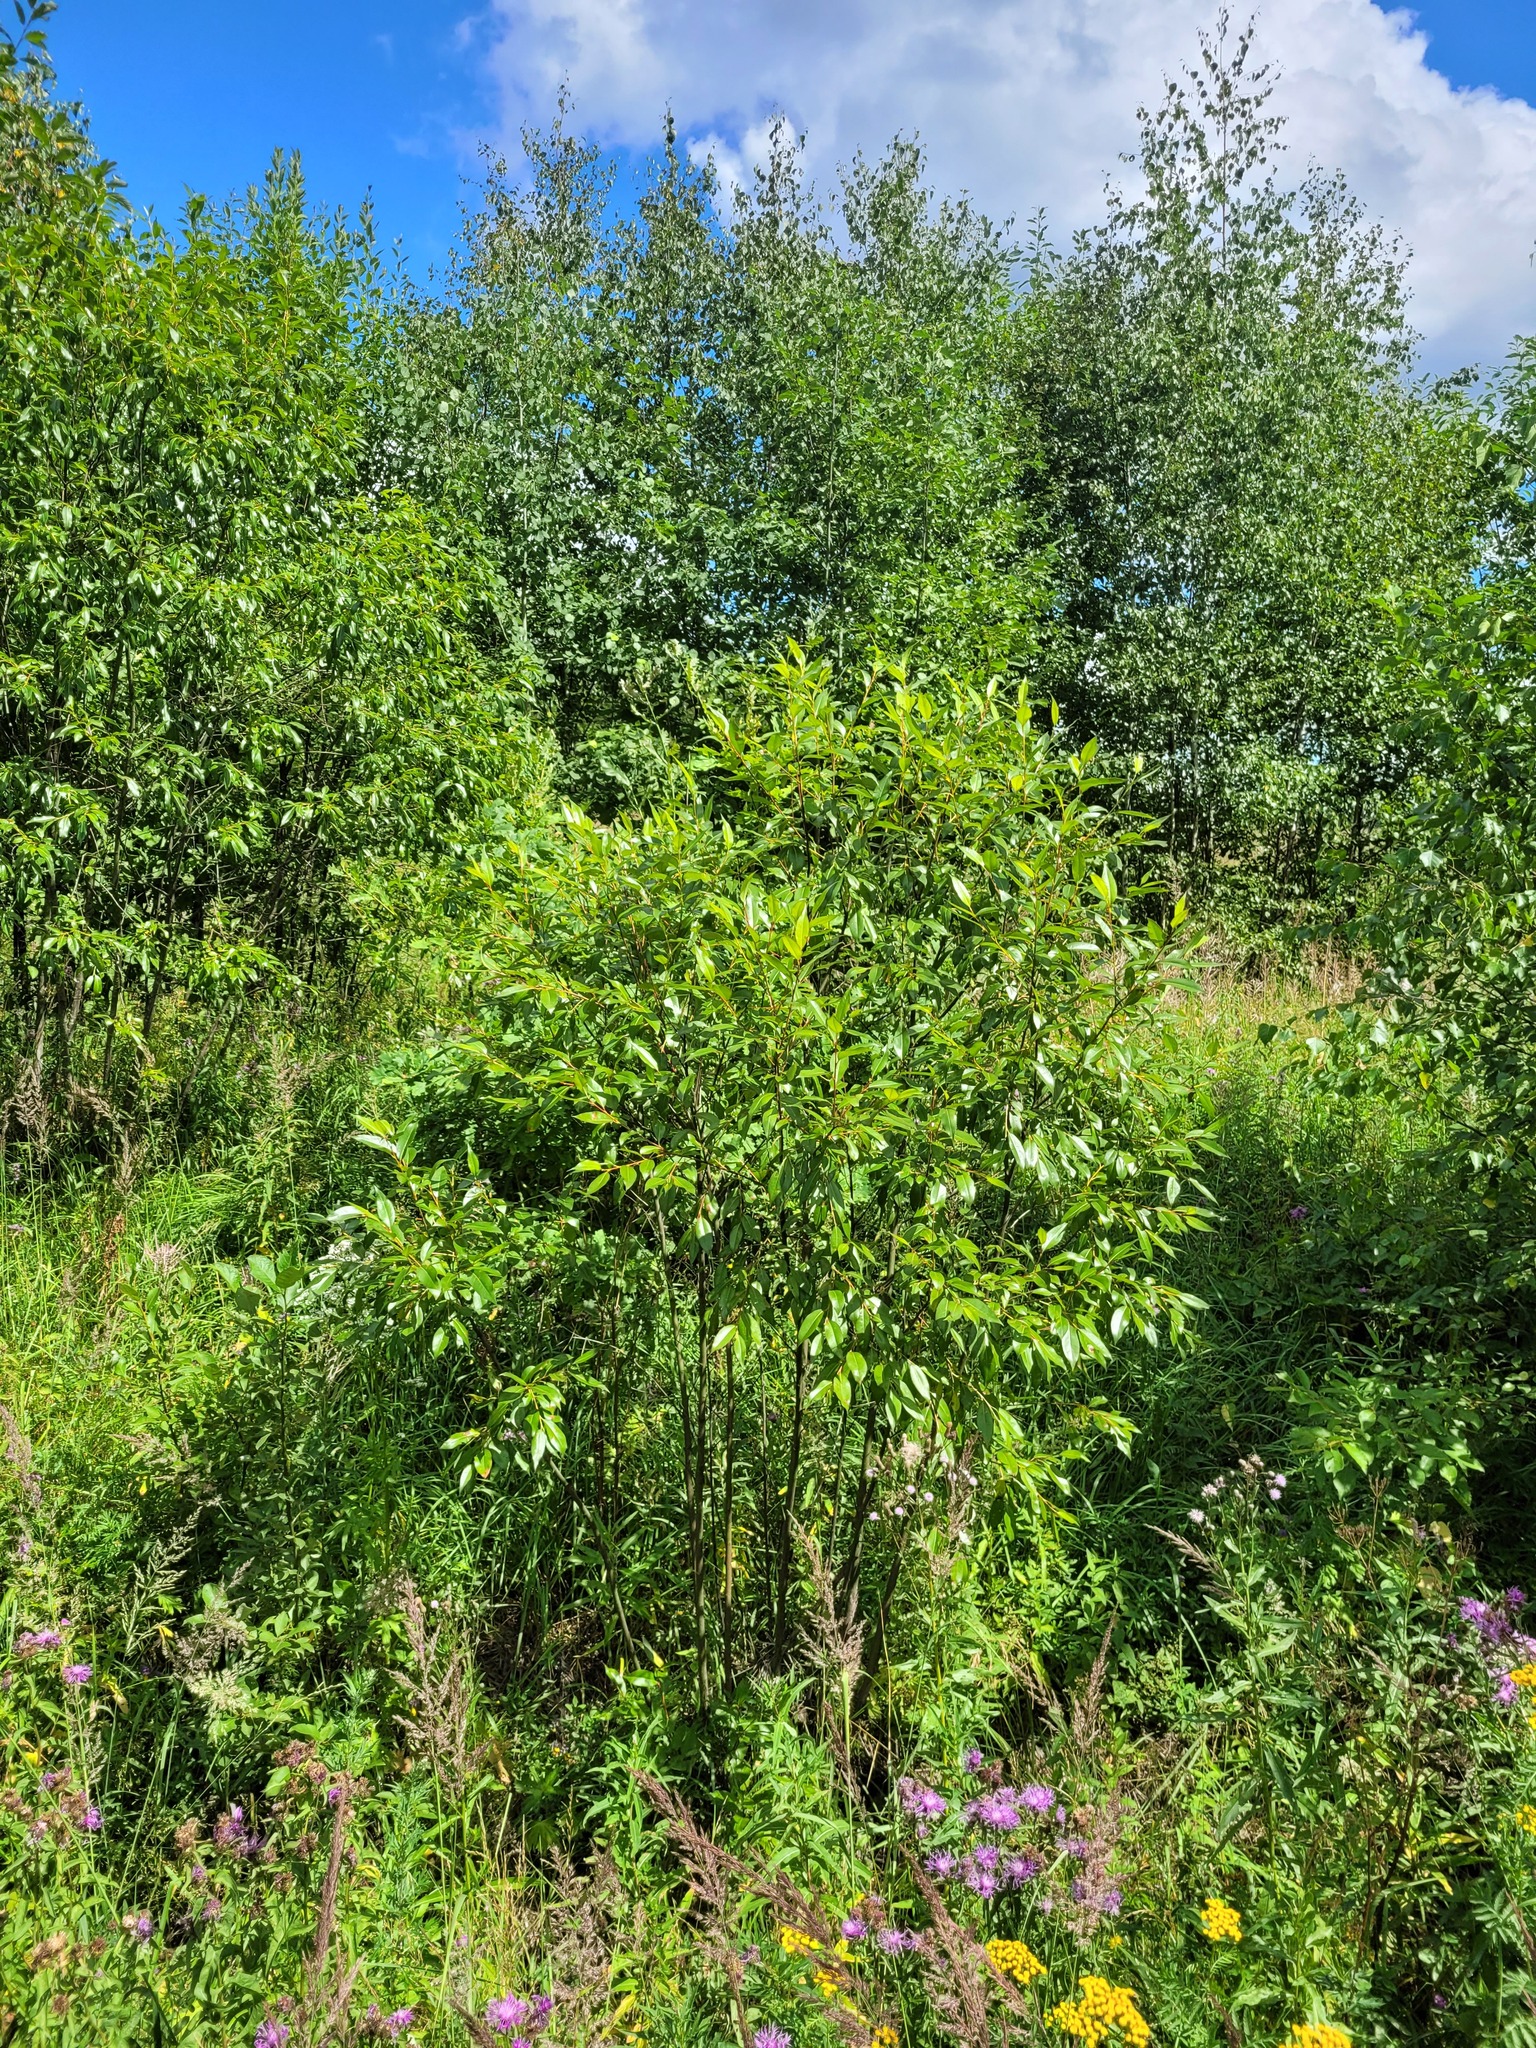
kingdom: Plantae
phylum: Tracheophyta
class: Magnoliopsida
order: Malpighiales
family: Salicaceae
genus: Salix
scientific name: Salix pentandra
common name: Bay willow
